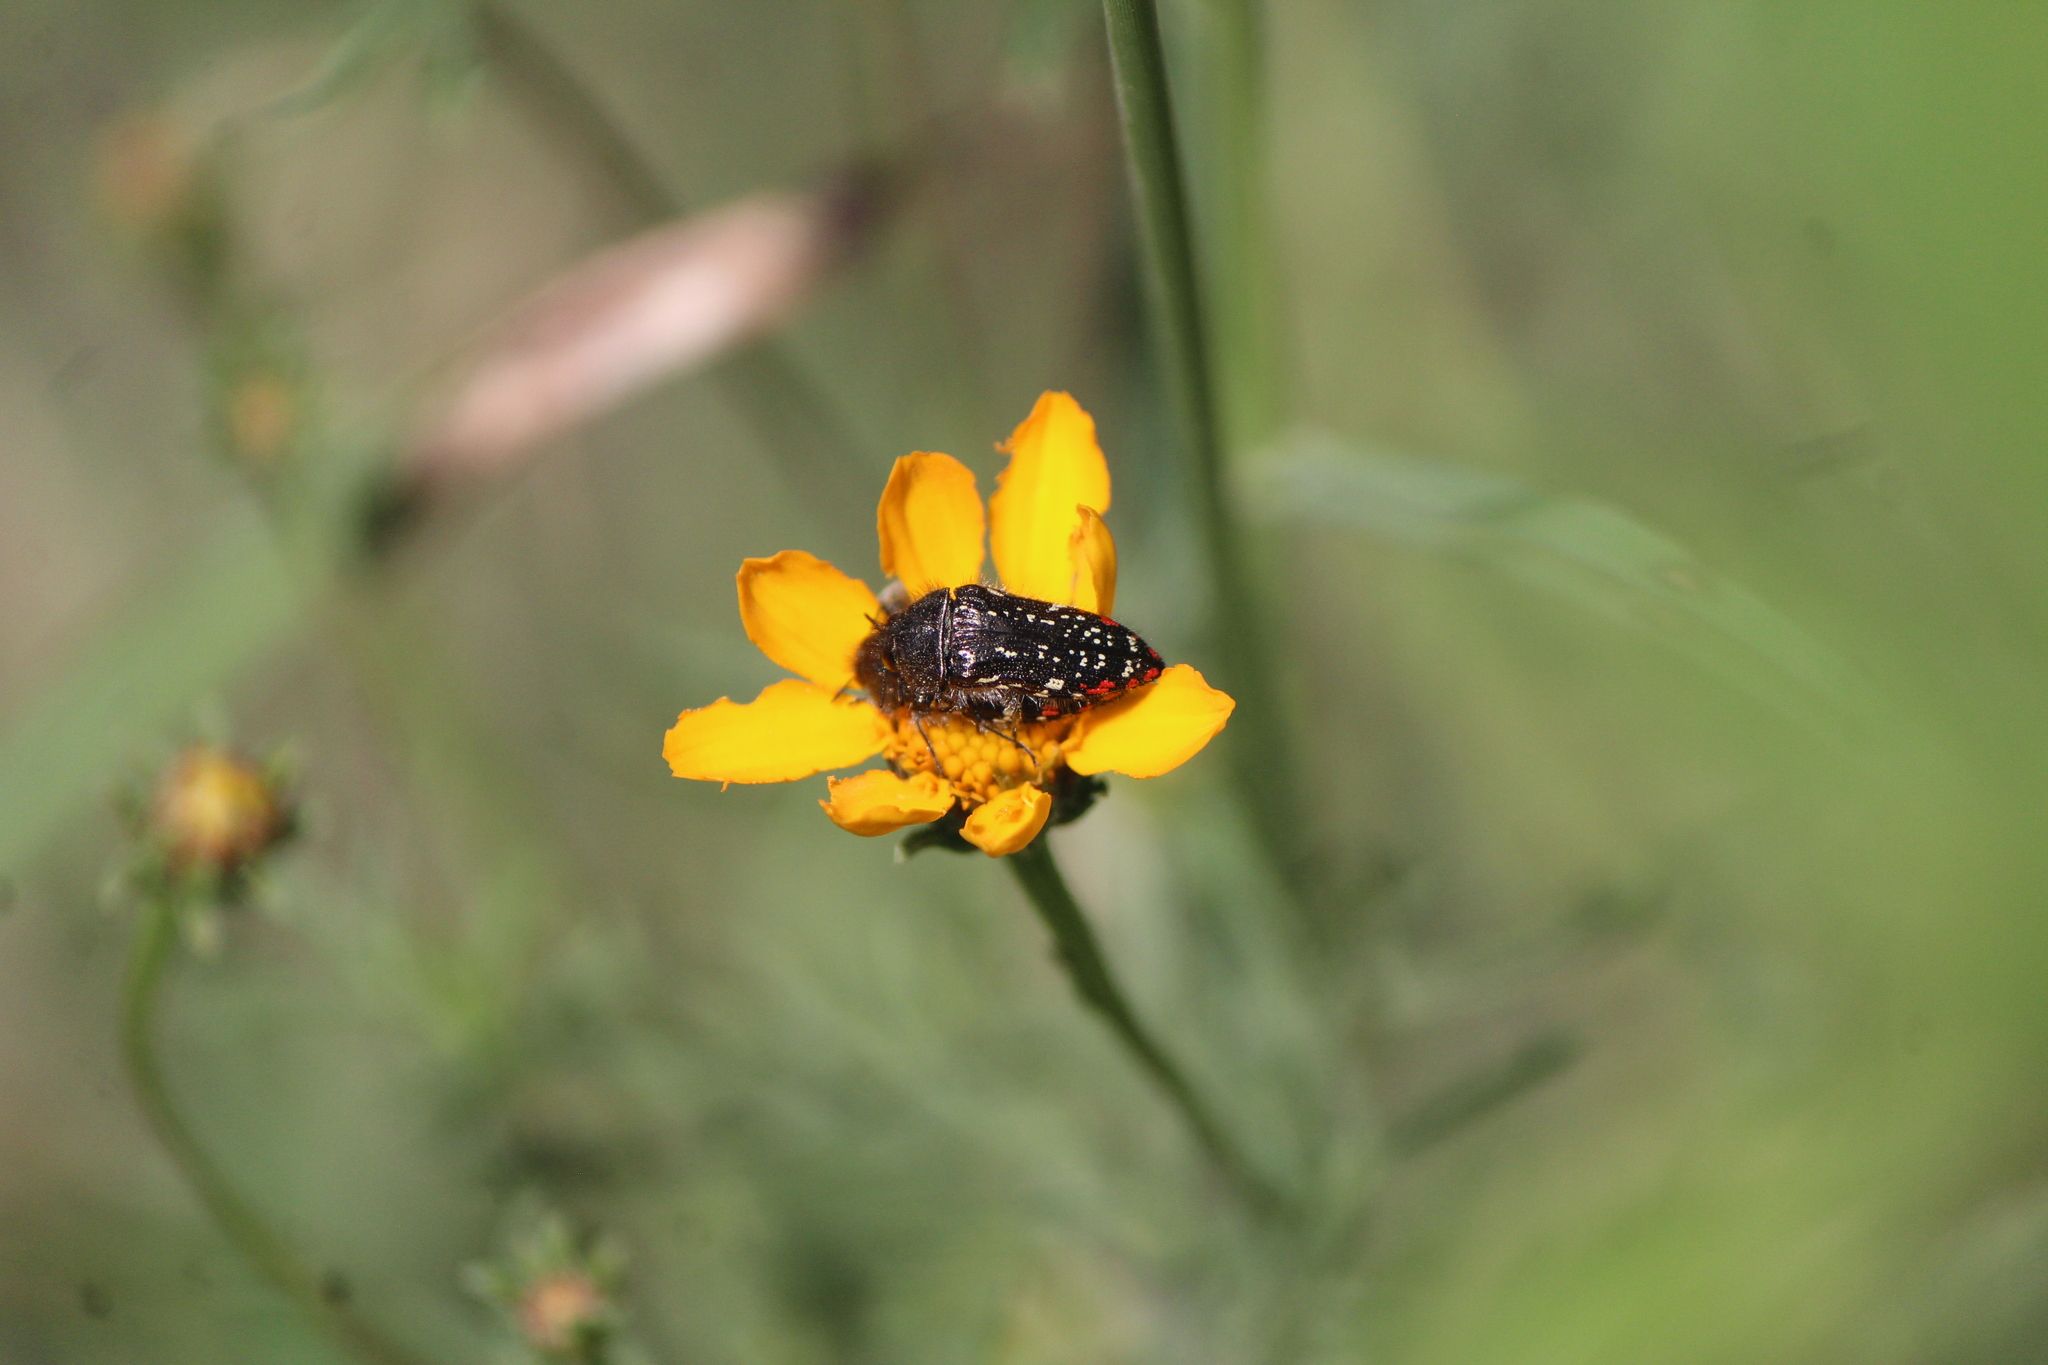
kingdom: Animalia
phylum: Arthropoda
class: Insecta
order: Coleoptera
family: Buprestidae
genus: Acmaeodera
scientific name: Acmaeodera mudgei
